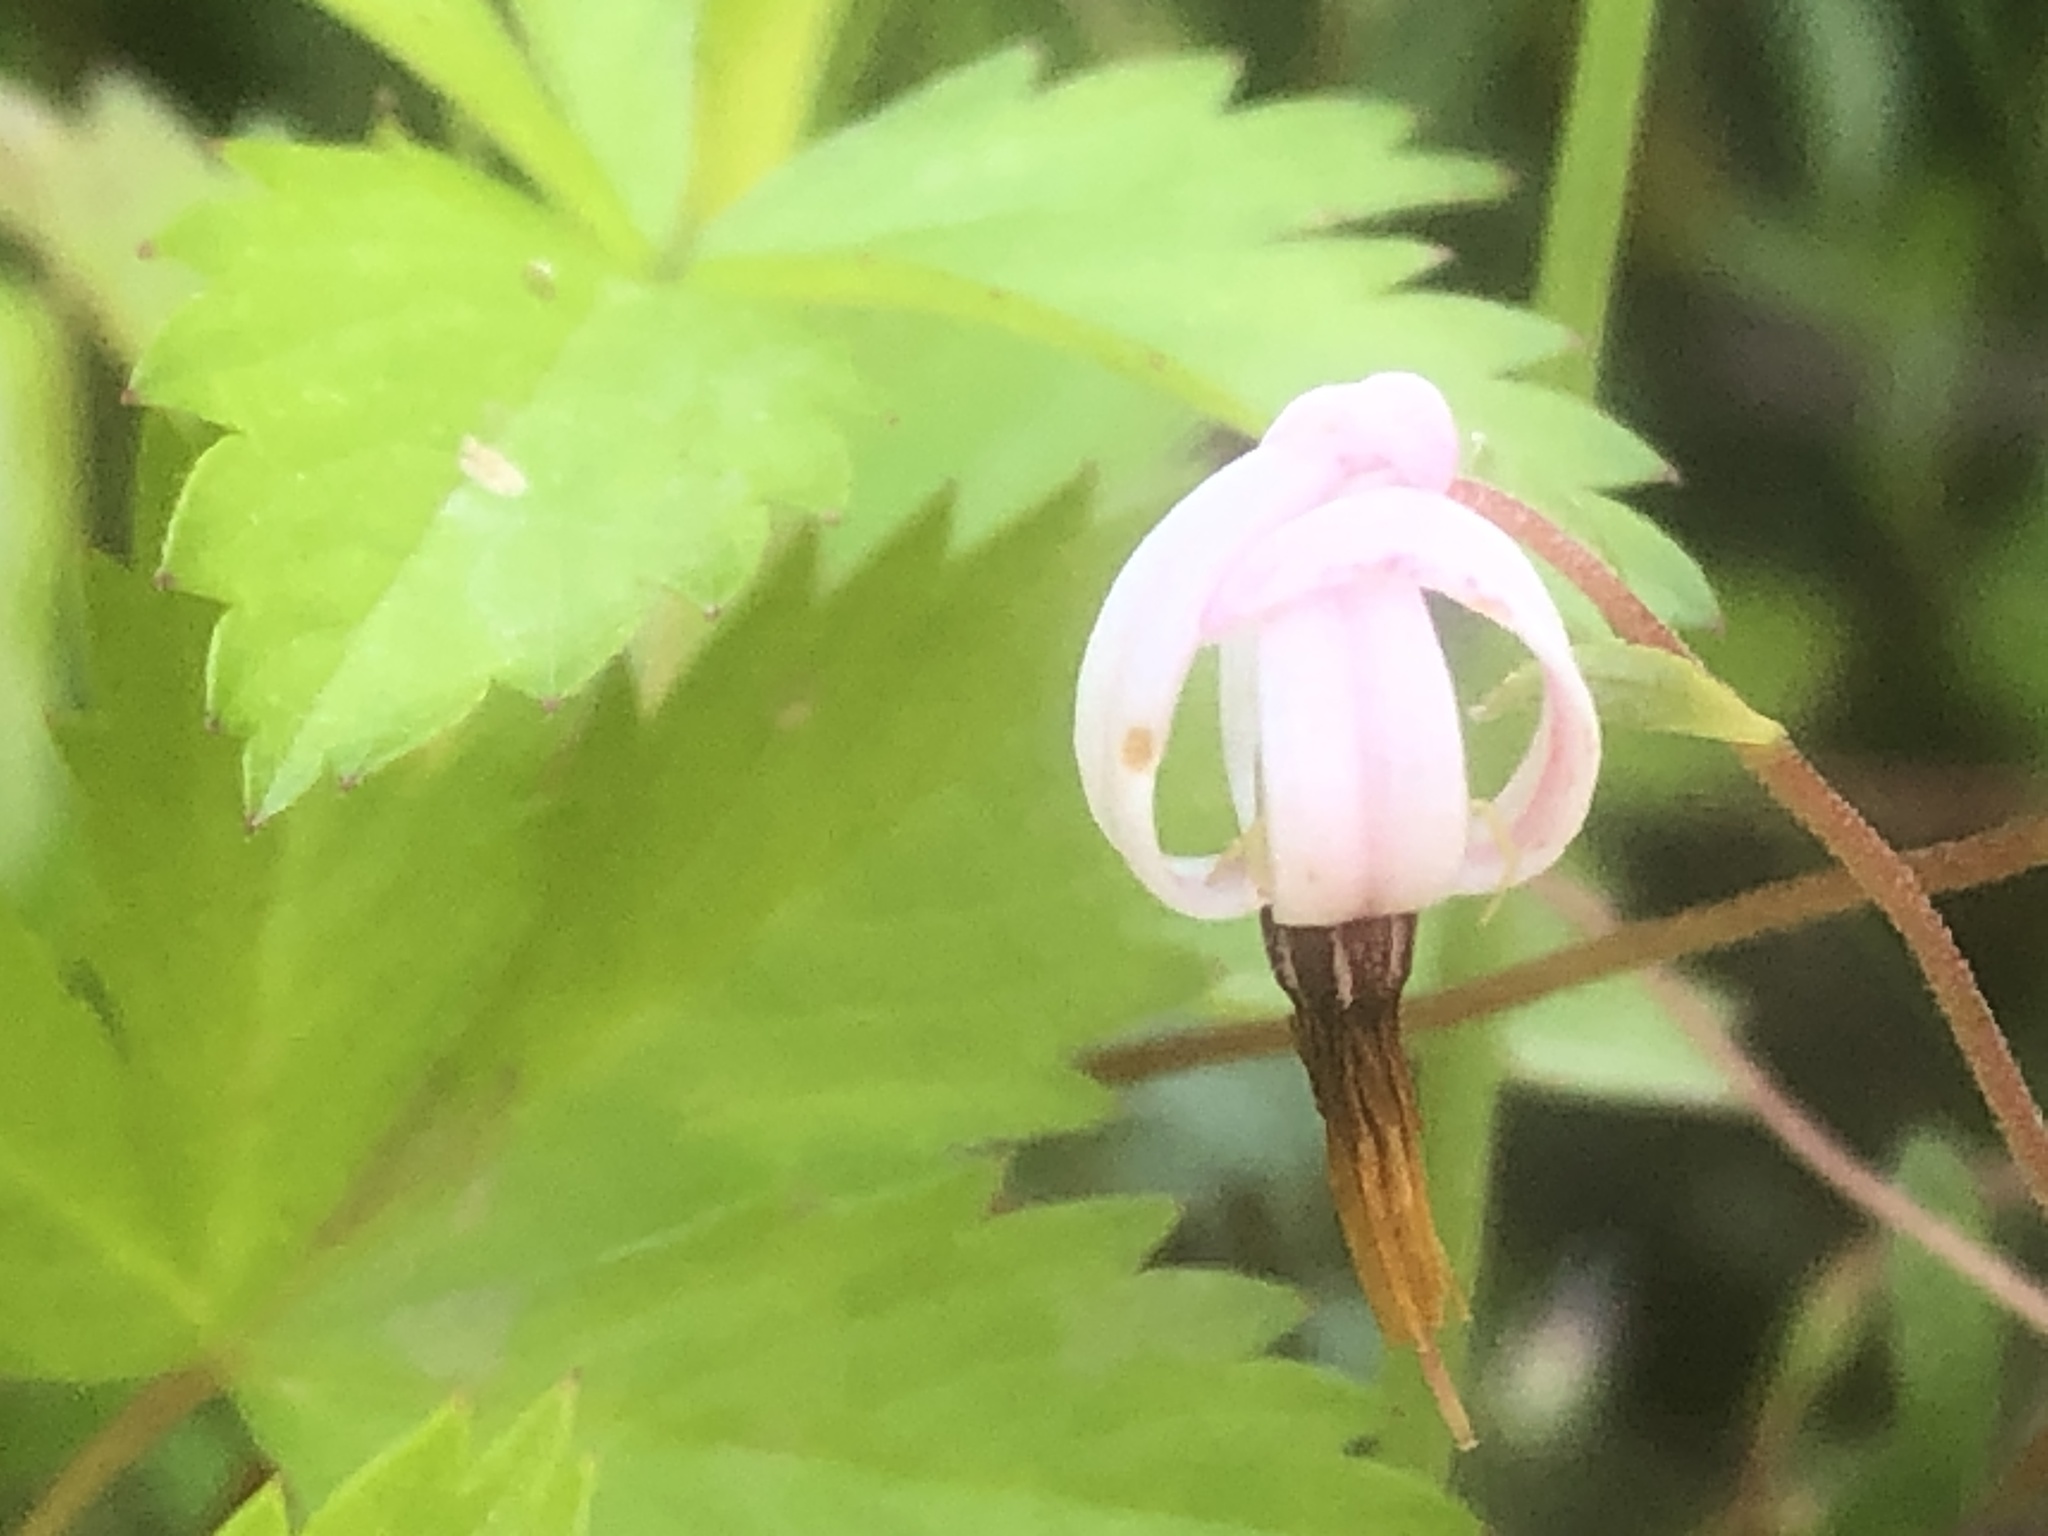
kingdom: Plantae
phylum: Tracheophyta
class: Magnoliopsida
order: Ericales
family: Ericaceae
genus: Vaccinium
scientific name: Vaccinium macrocarpon
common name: American cranberry
